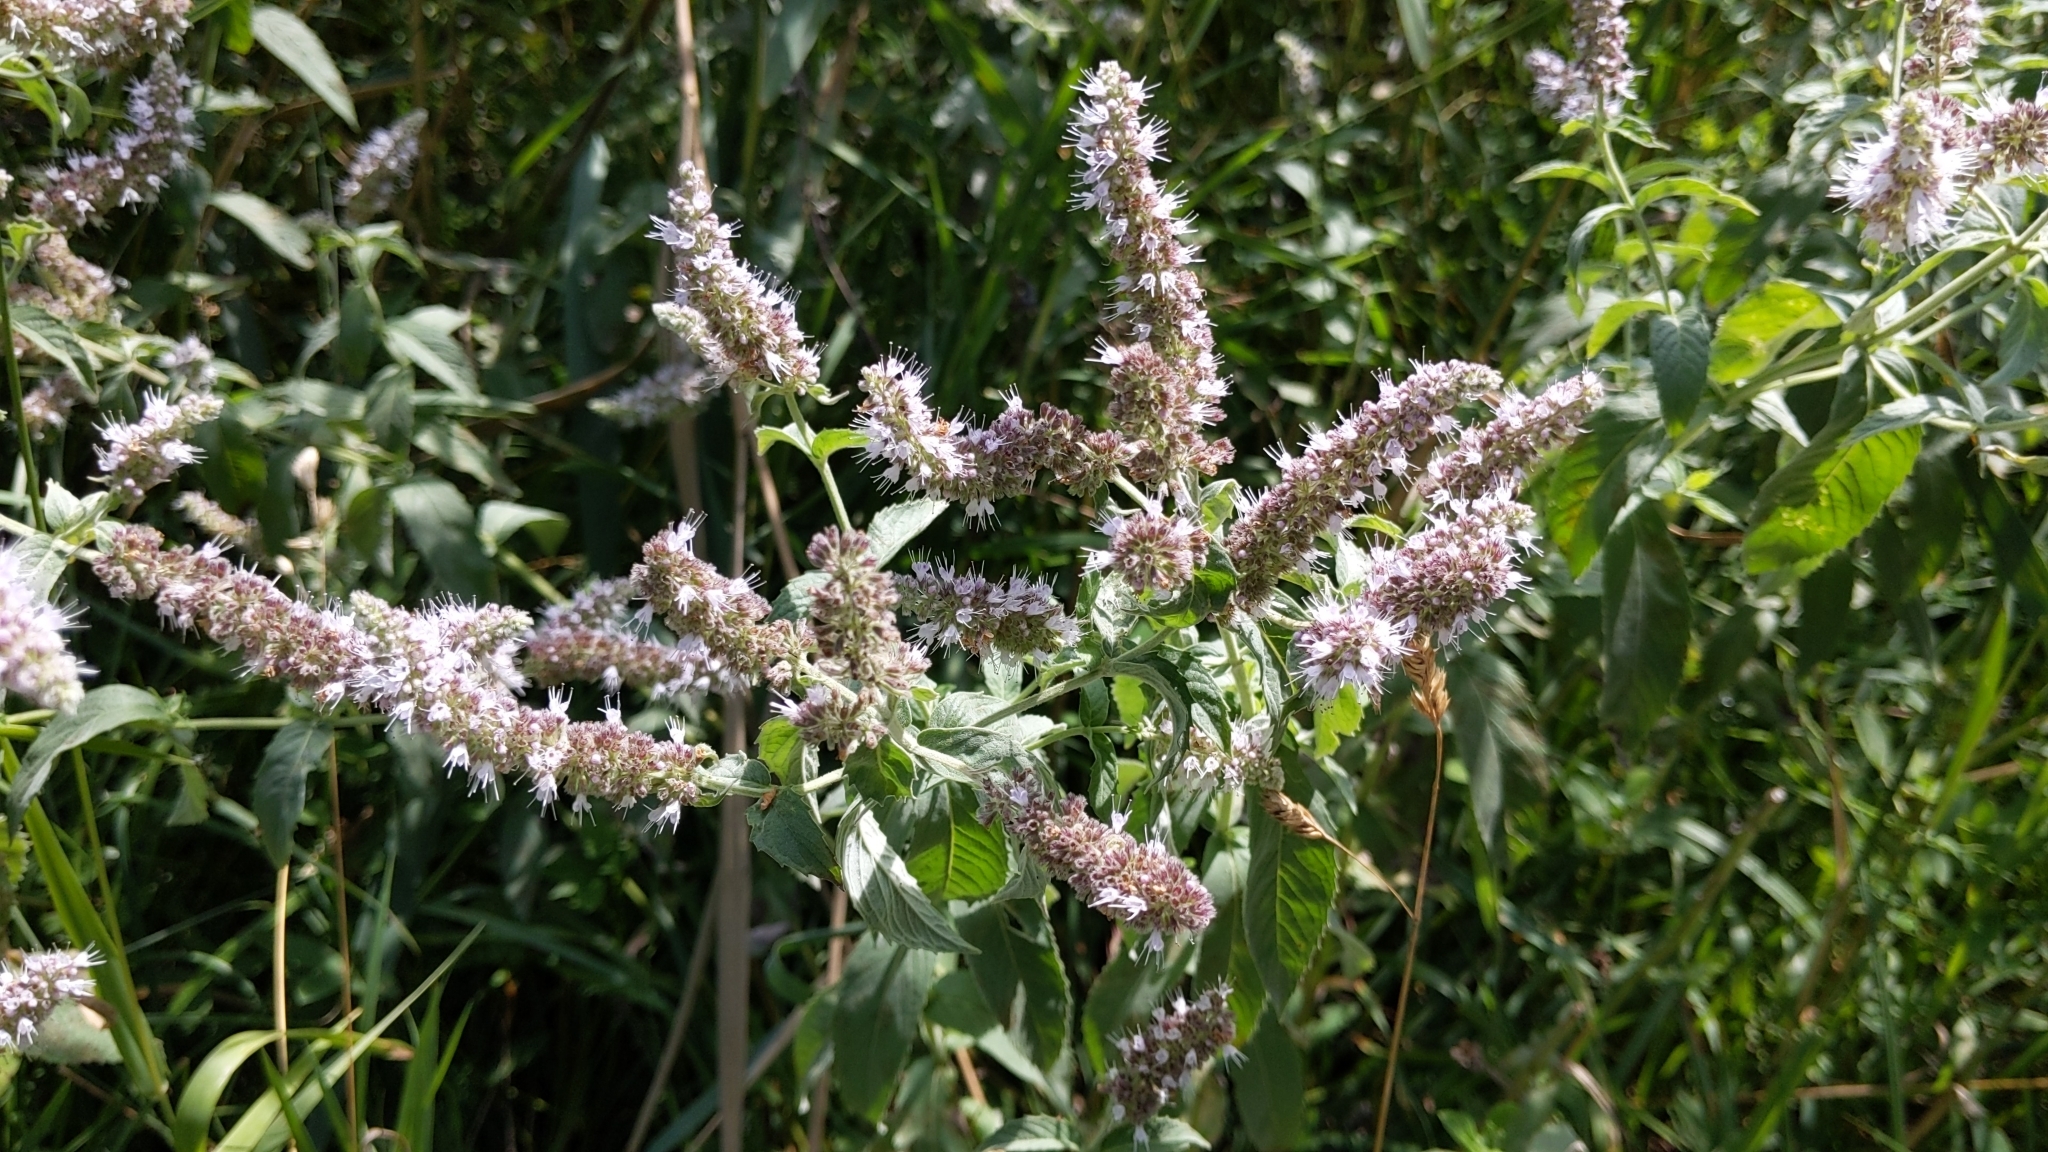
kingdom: Plantae
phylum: Tracheophyta
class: Magnoliopsida
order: Lamiales
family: Lamiaceae
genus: Mentha
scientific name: Mentha longifolia
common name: Horse mint
